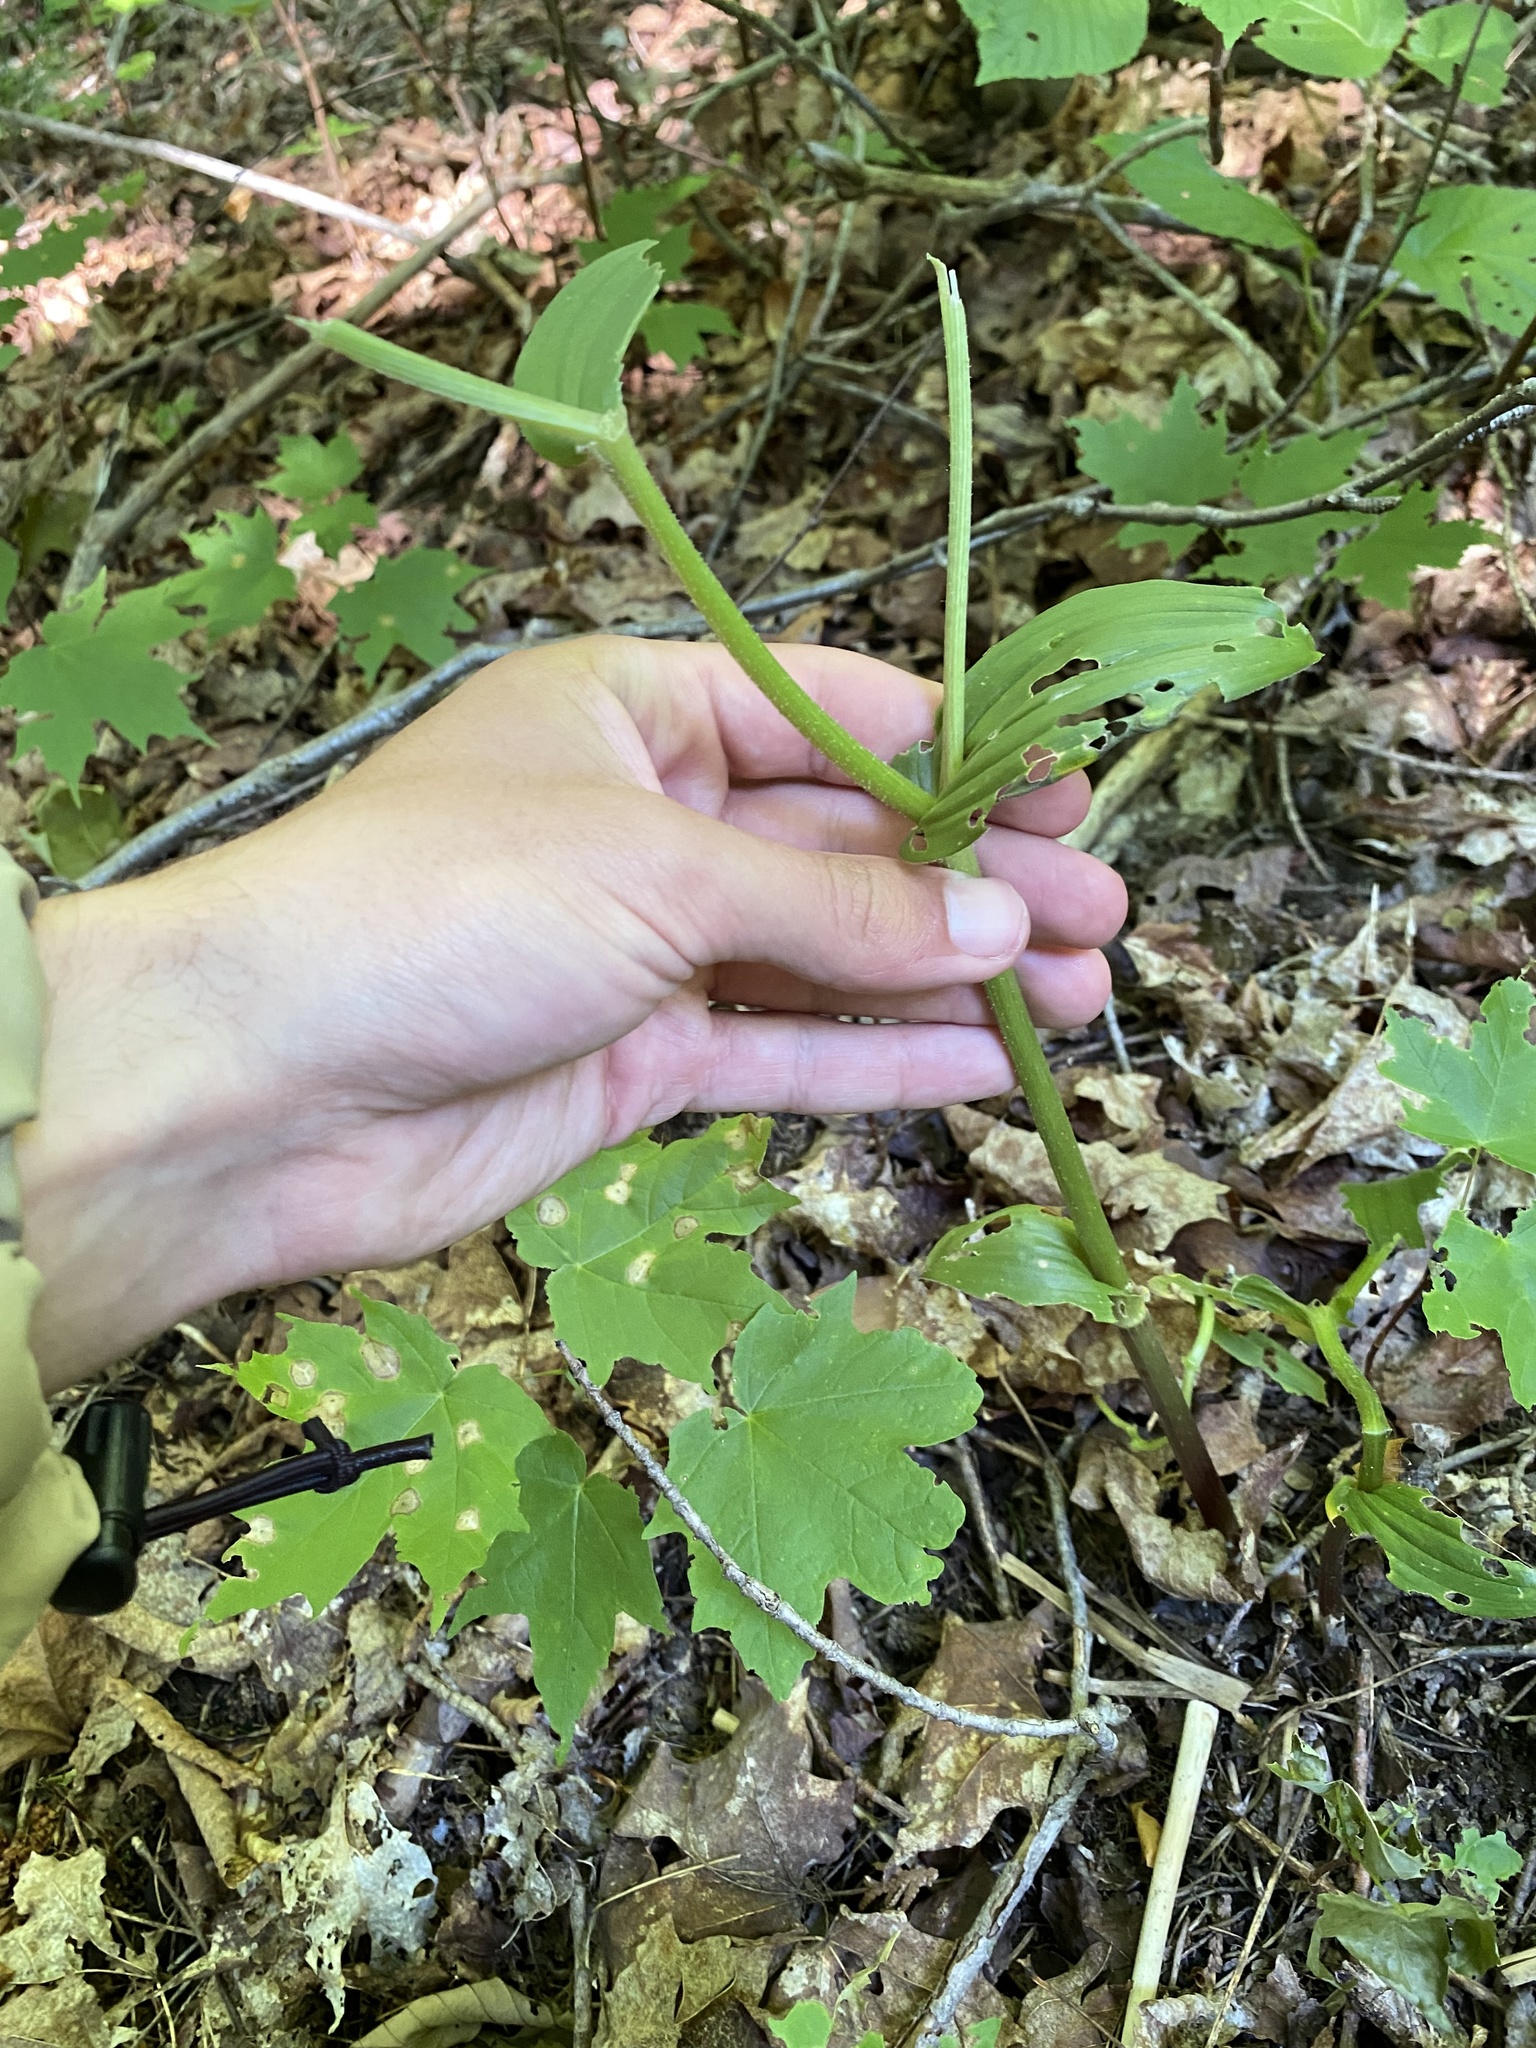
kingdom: Plantae
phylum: Tracheophyta
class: Liliopsida
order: Liliales
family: Liliaceae
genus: Streptopus
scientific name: Streptopus lanceolatus
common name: Rose mandarin
